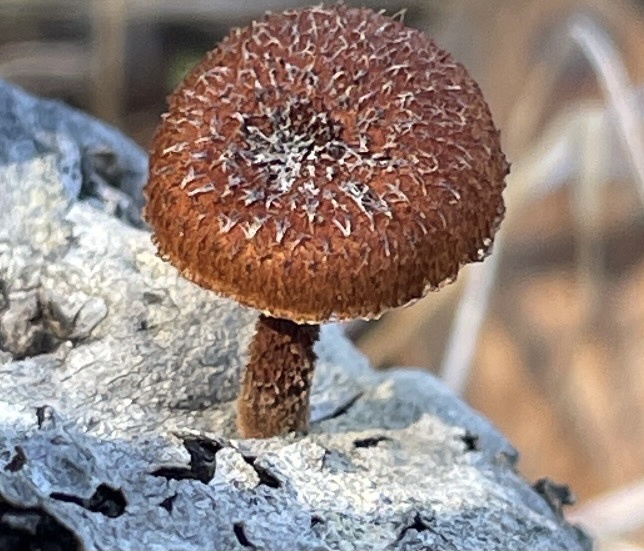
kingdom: Fungi
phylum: Basidiomycota
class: Agaricomycetes
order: Agaricales
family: Tubariaceae
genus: Phaeomarasmius
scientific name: Phaeomarasmius erinaceus
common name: Hedgehog scalycap
